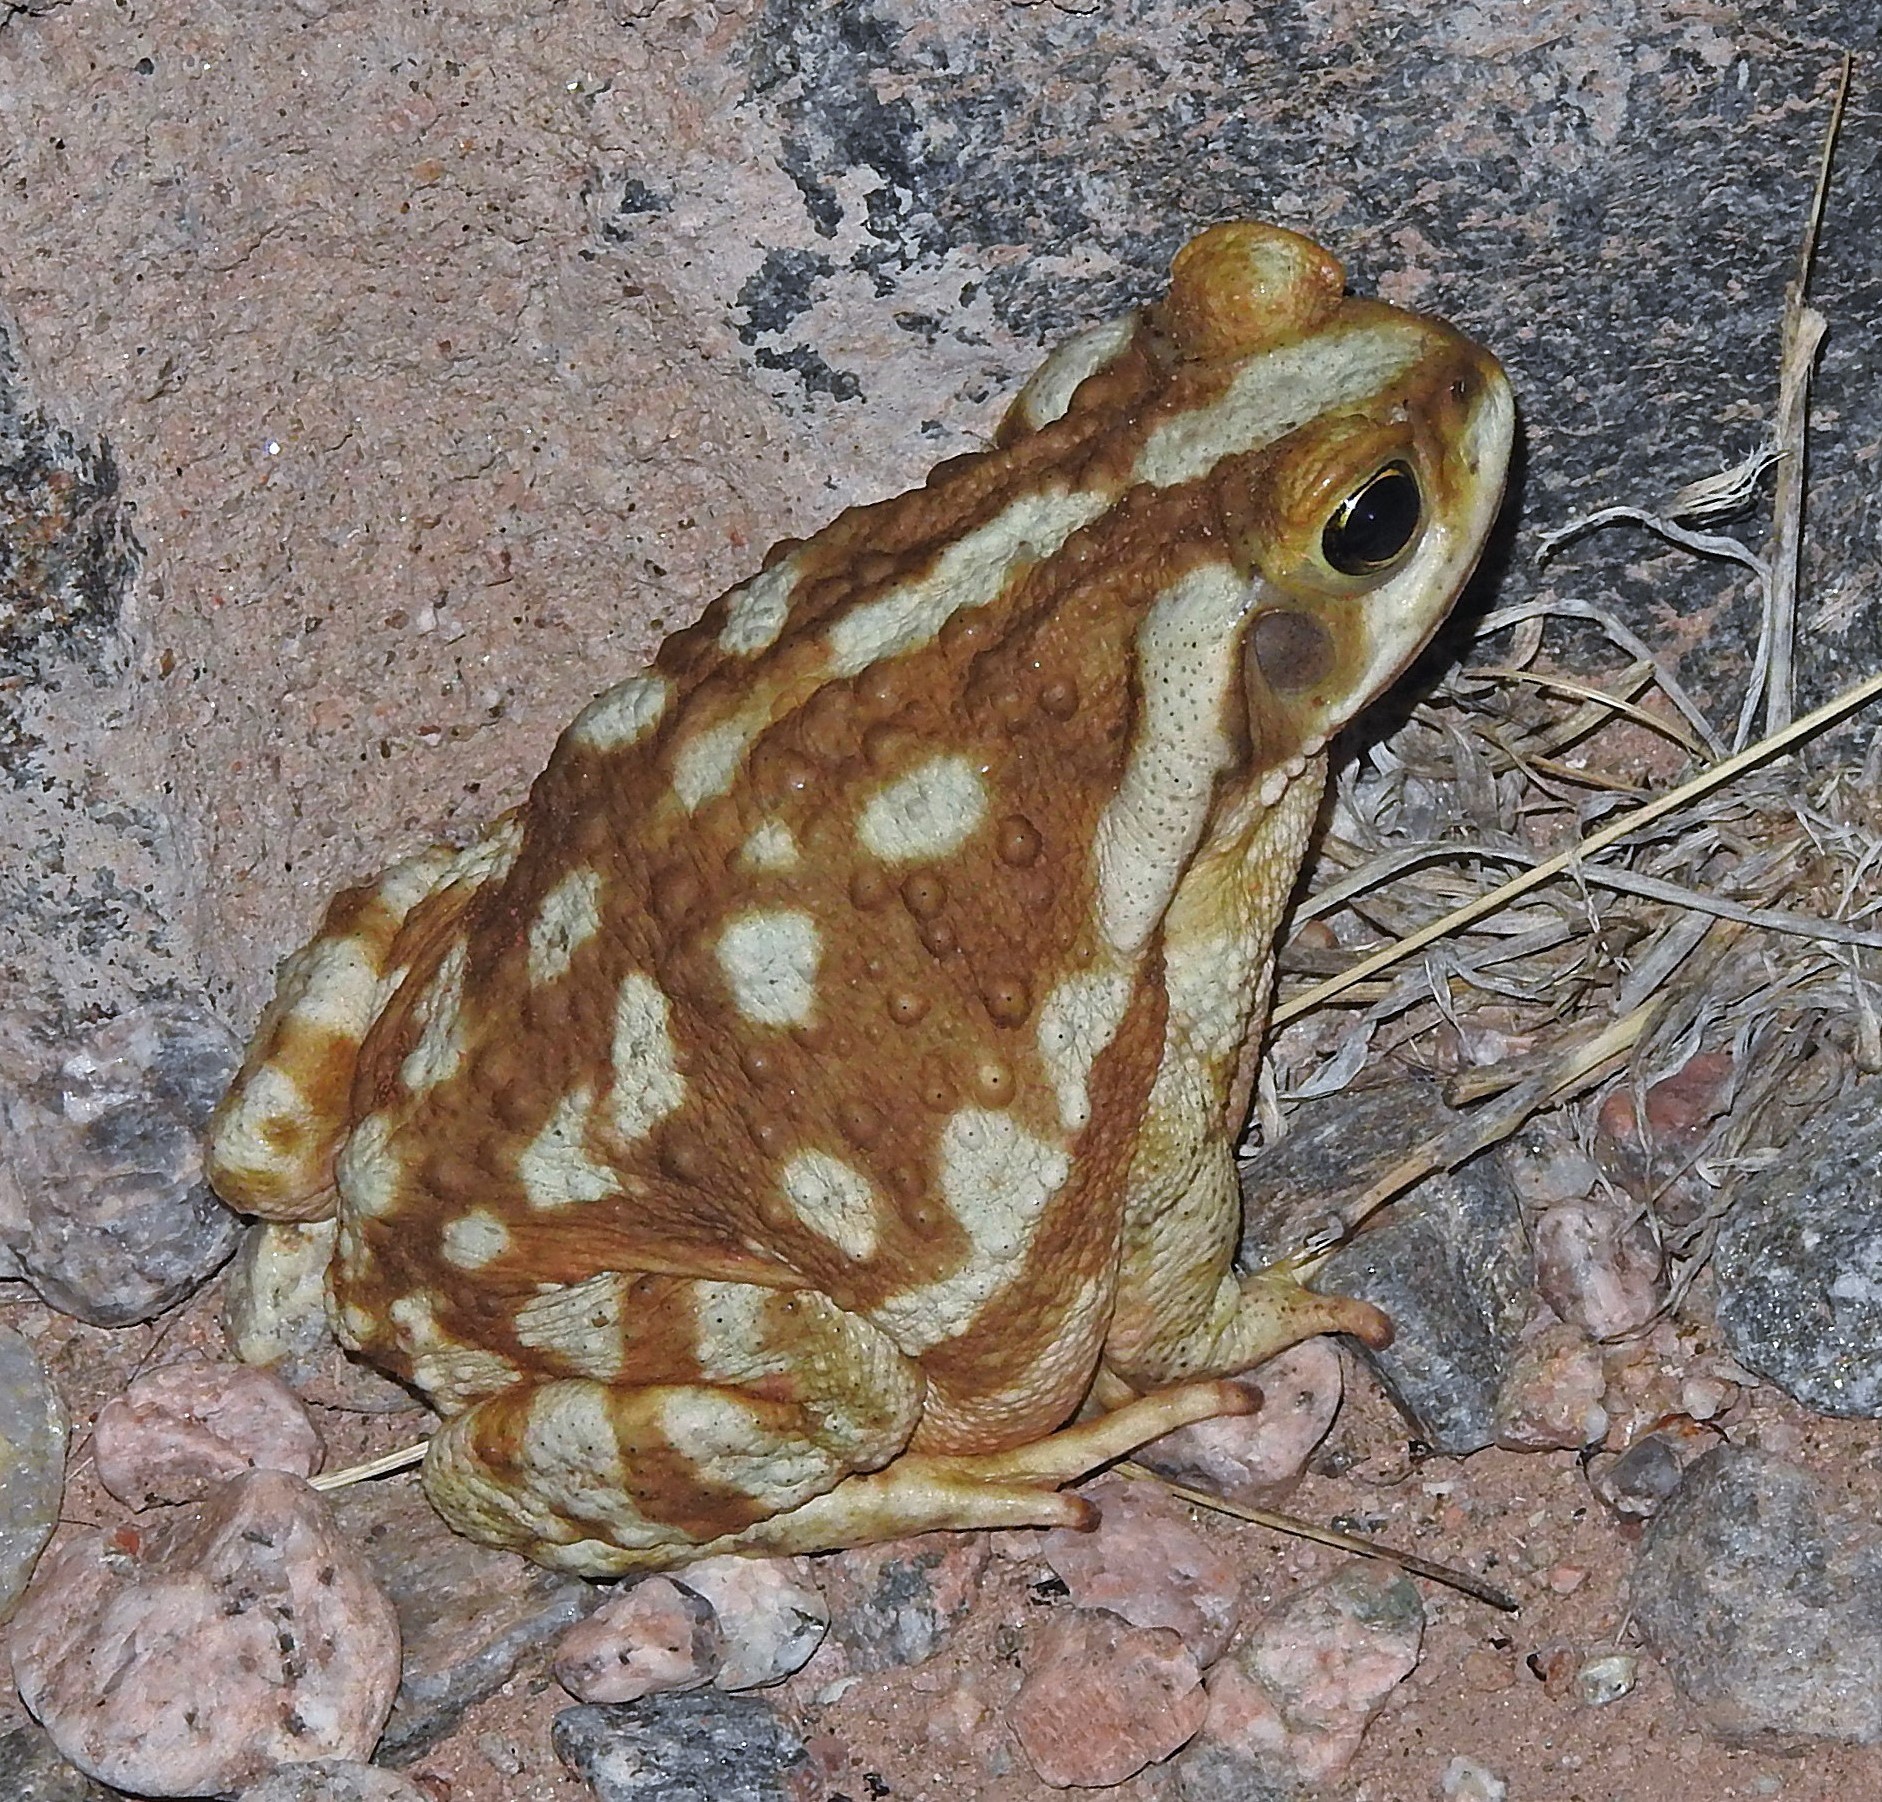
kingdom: Animalia
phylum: Chordata
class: Amphibia
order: Anura
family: Bufonidae
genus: Rhinella
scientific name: Rhinella arenarum
